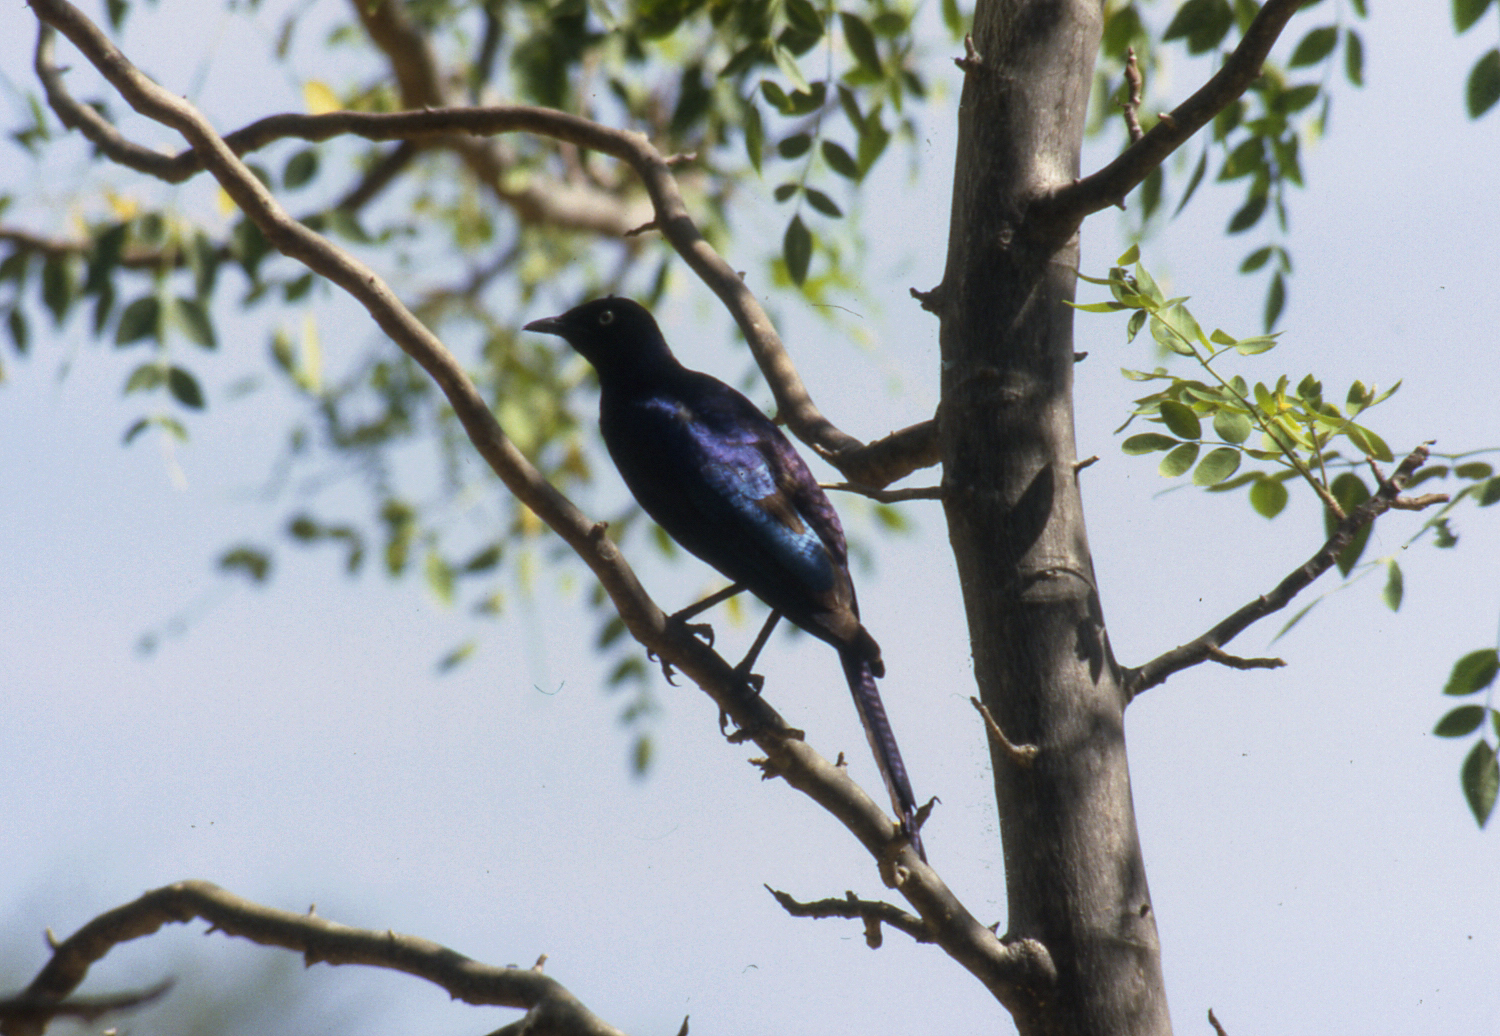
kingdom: Animalia
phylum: Chordata
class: Aves
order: Passeriformes
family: Sturnidae
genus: Lamprotornis
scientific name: Lamprotornis purpuroptera
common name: Rüppell's starling
